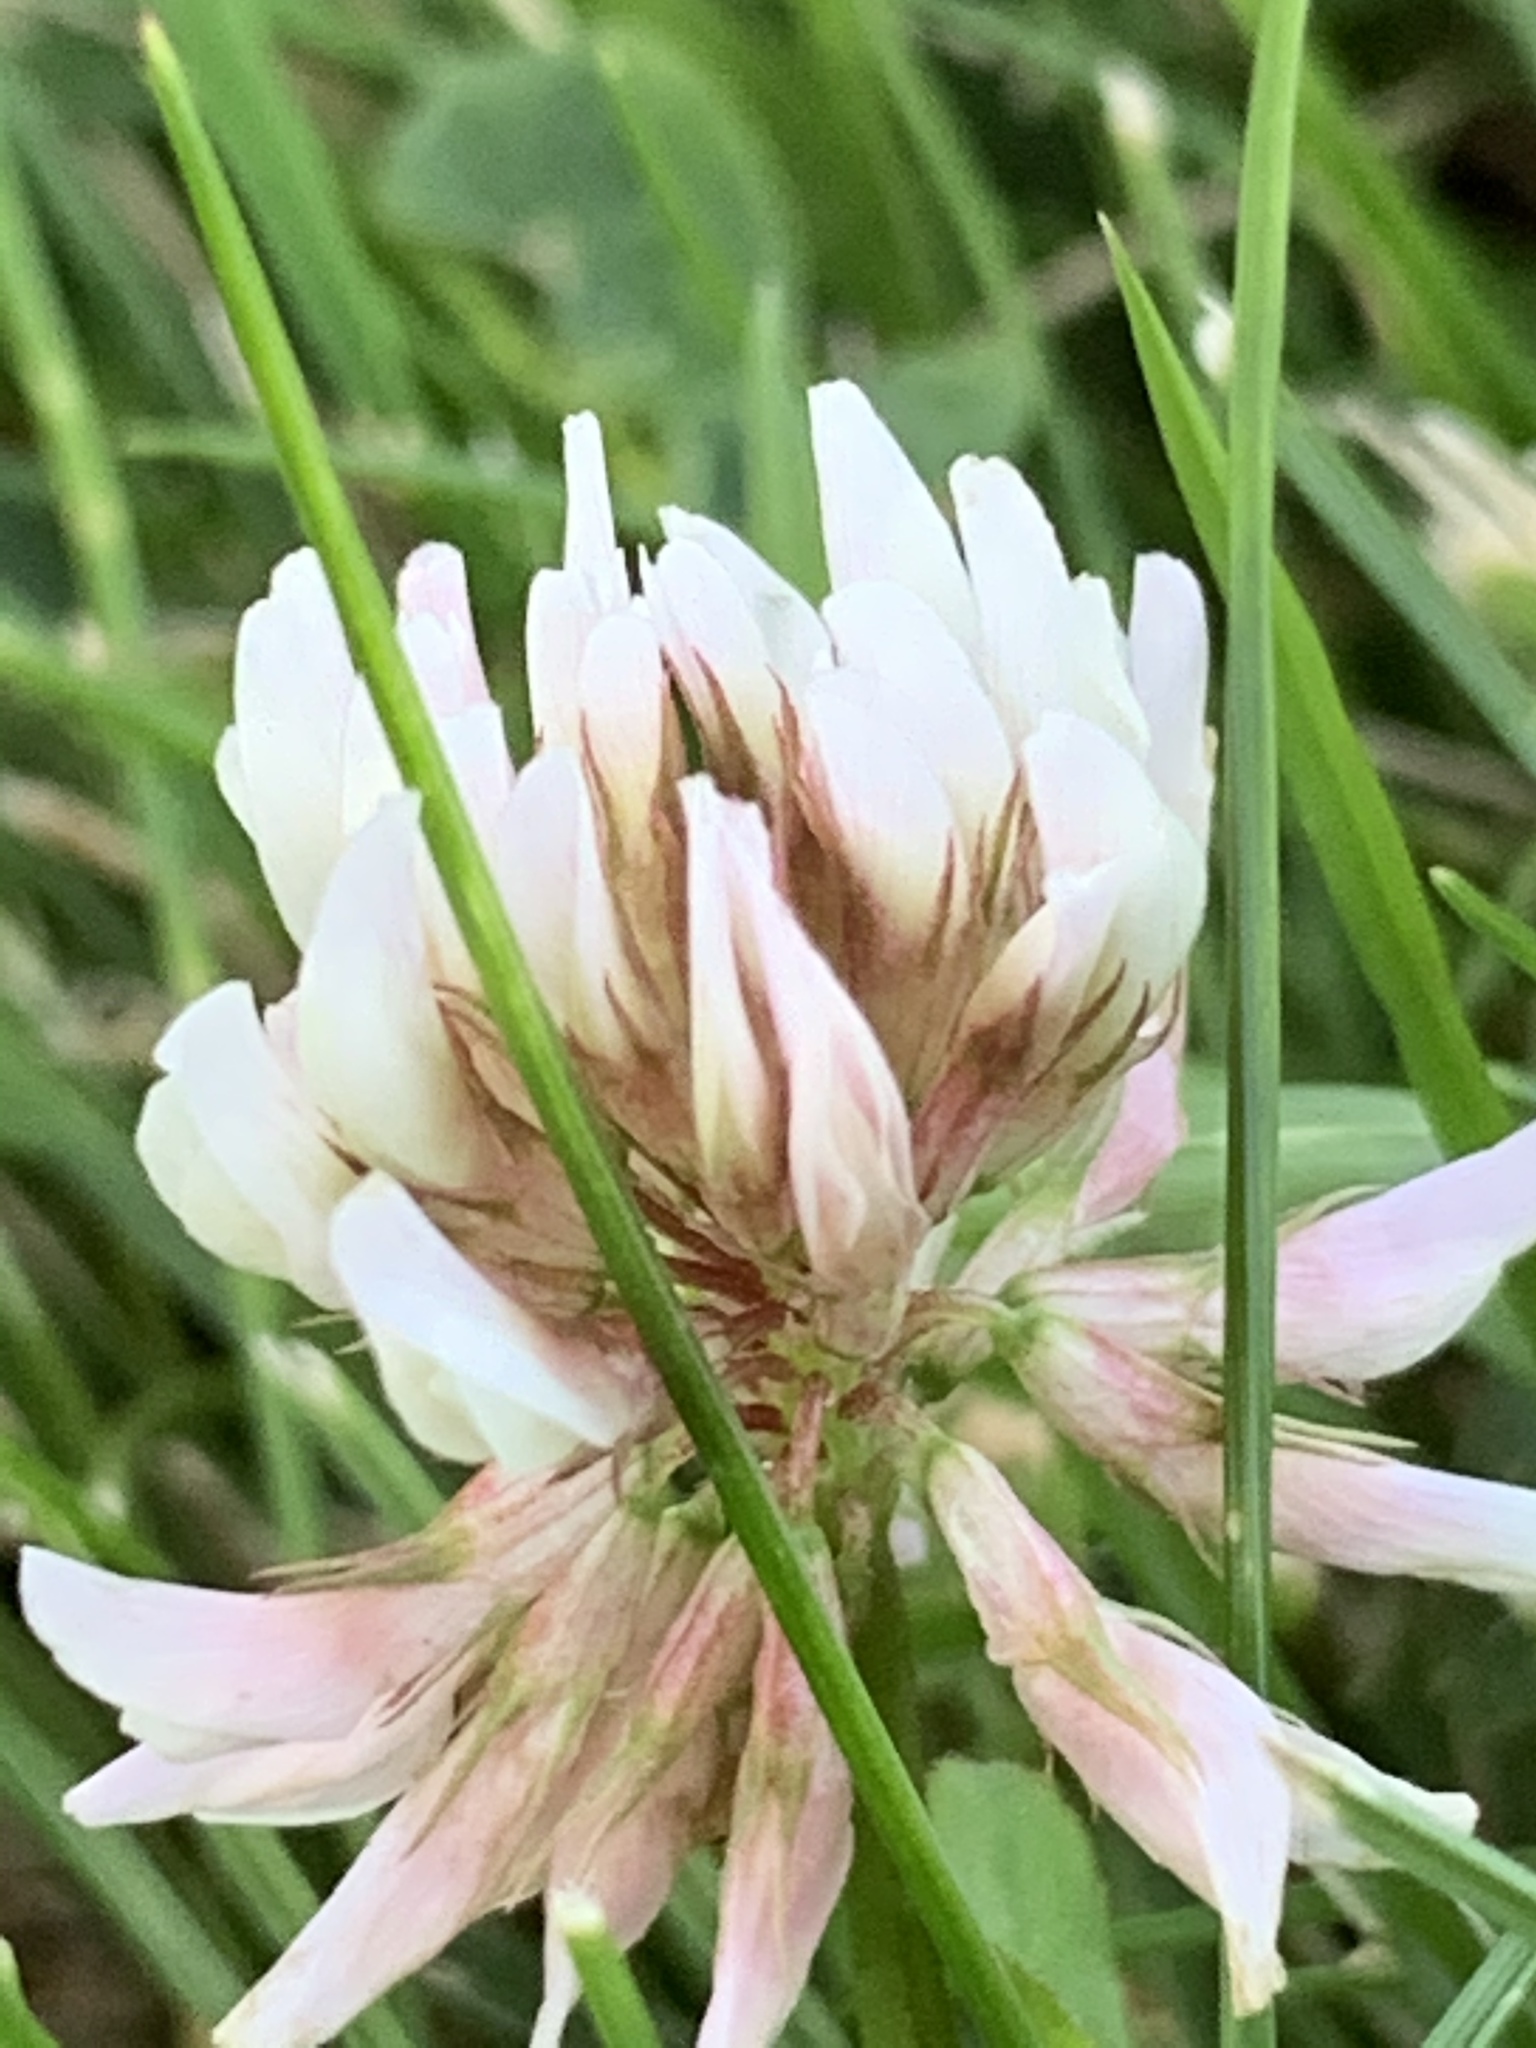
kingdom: Plantae
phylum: Tracheophyta
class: Magnoliopsida
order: Fabales
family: Fabaceae
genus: Trifolium
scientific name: Trifolium repens
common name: White clover
